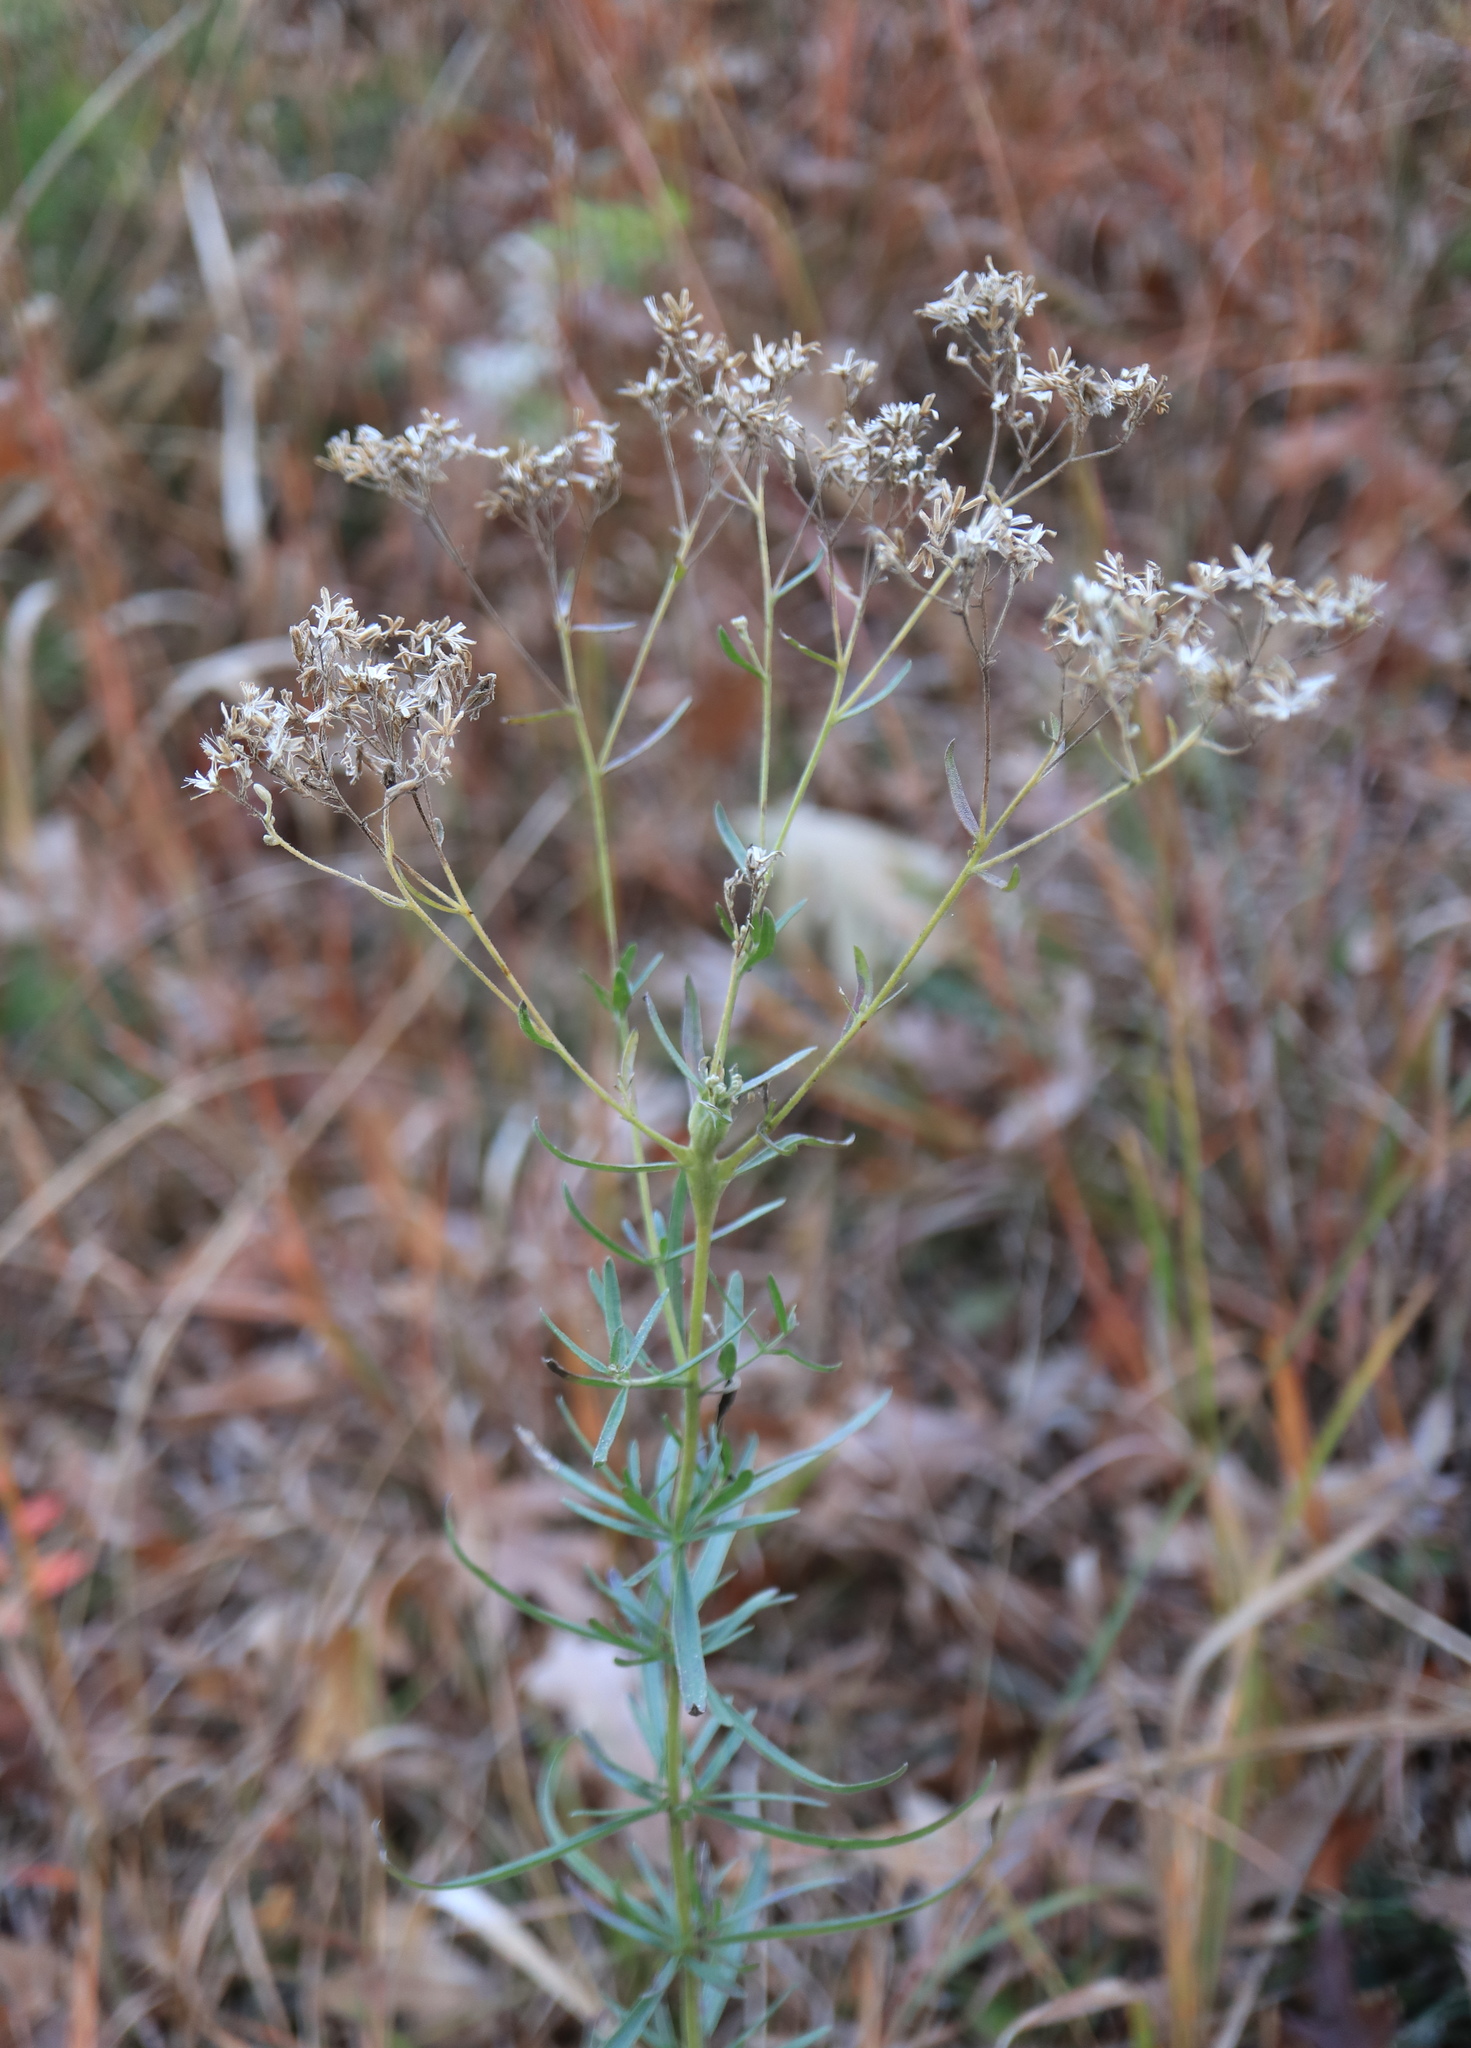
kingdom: Plantae
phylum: Tracheophyta
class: Magnoliopsida
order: Asterales
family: Asteraceae
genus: Eupatorium
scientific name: Eupatorium hyssopifolium
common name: Hyssop-leaf thoroughwort
